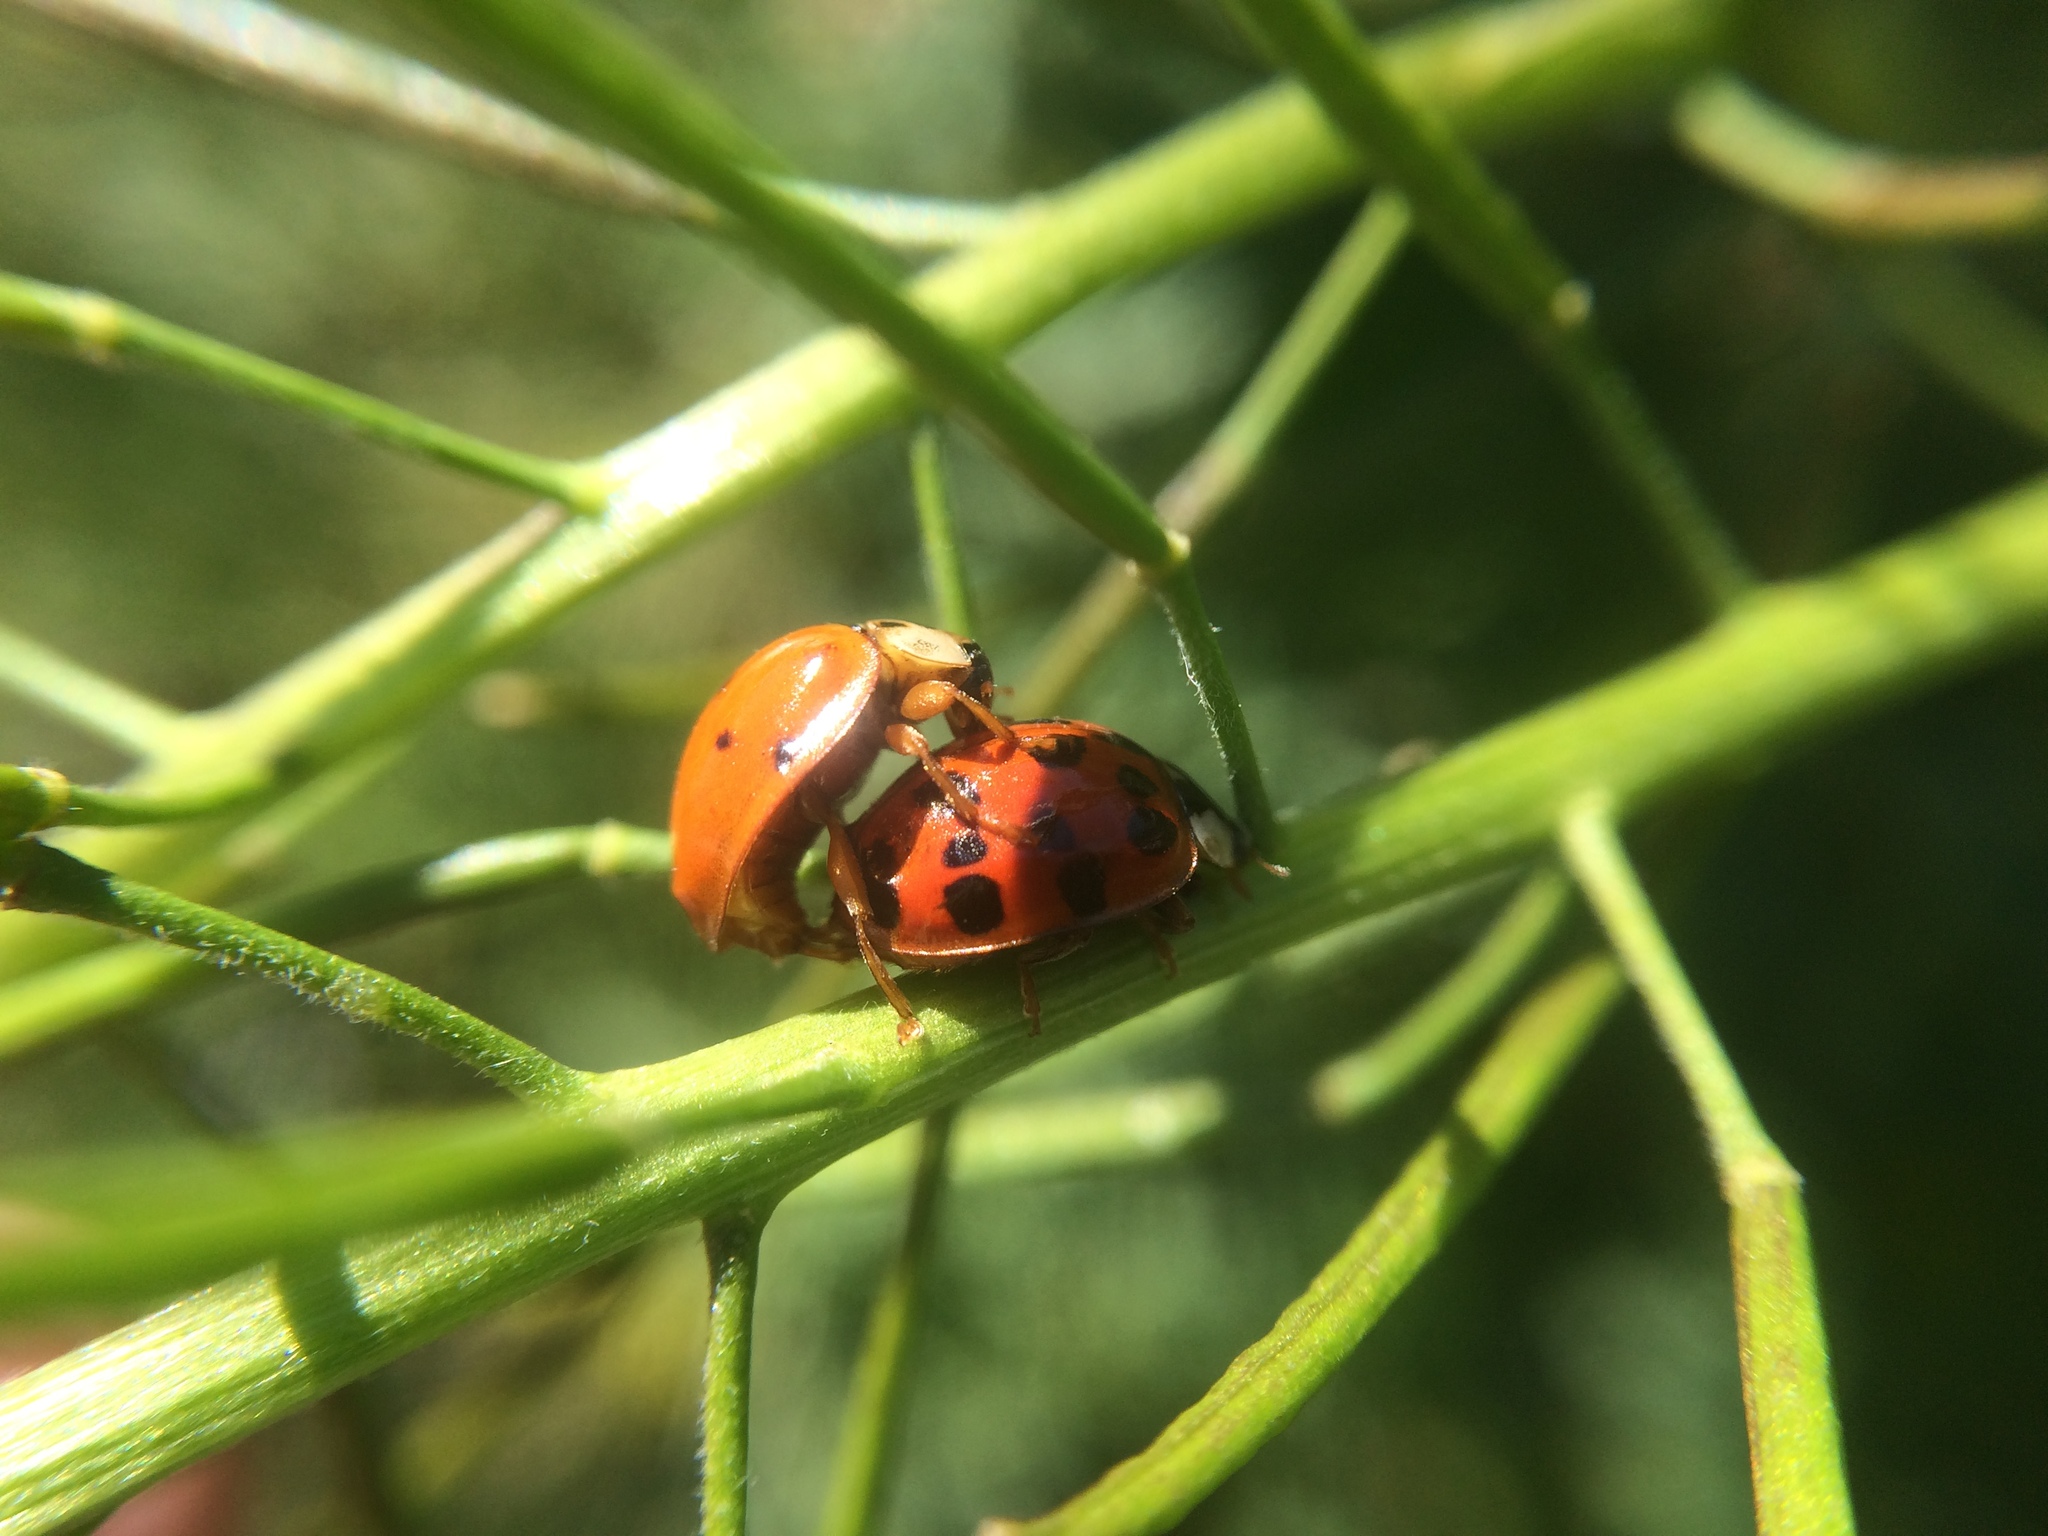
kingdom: Animalia
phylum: Arthropoda
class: Insecta
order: Coleoptera
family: Coccinellidae
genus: Harmonia
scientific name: Harmonia axyridis
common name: Harlequin ladybird
